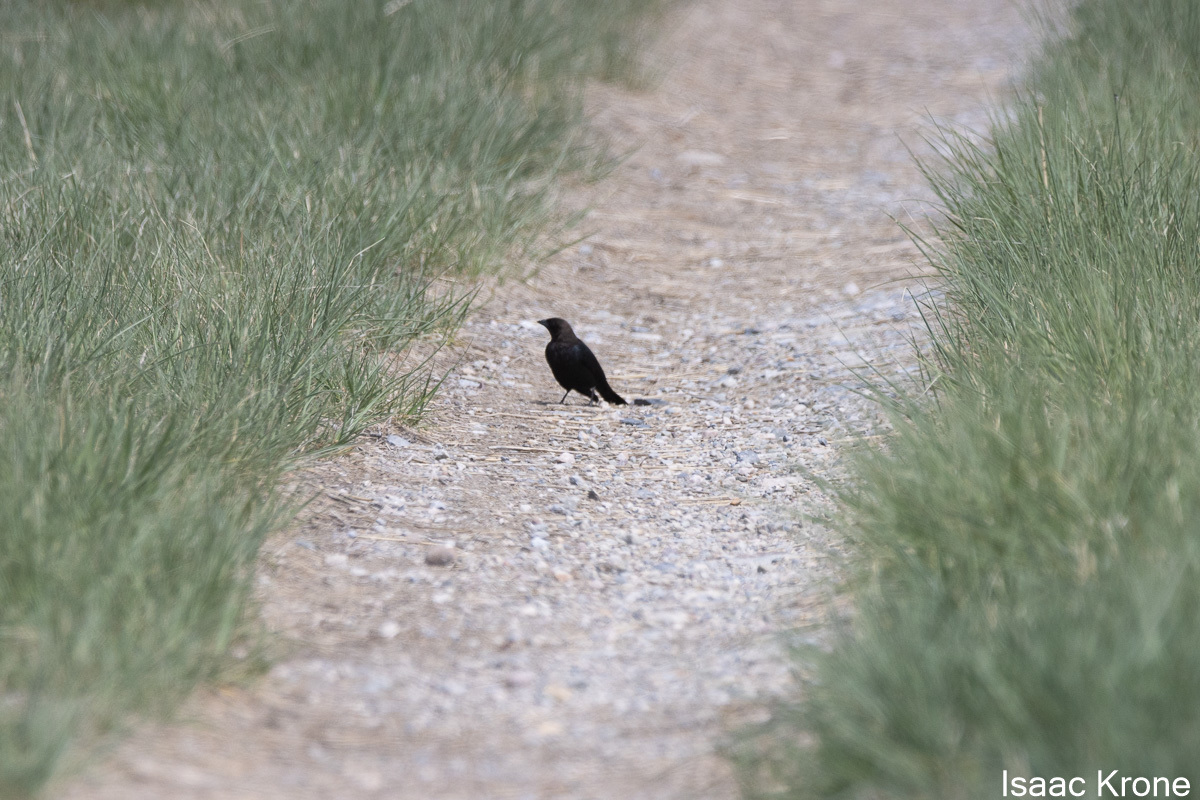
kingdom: Animalia
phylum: Chordata
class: Aves
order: Passeriformes
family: Icteridae
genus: Molothrus
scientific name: Molothrus ater
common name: Brown-headed cowbird
